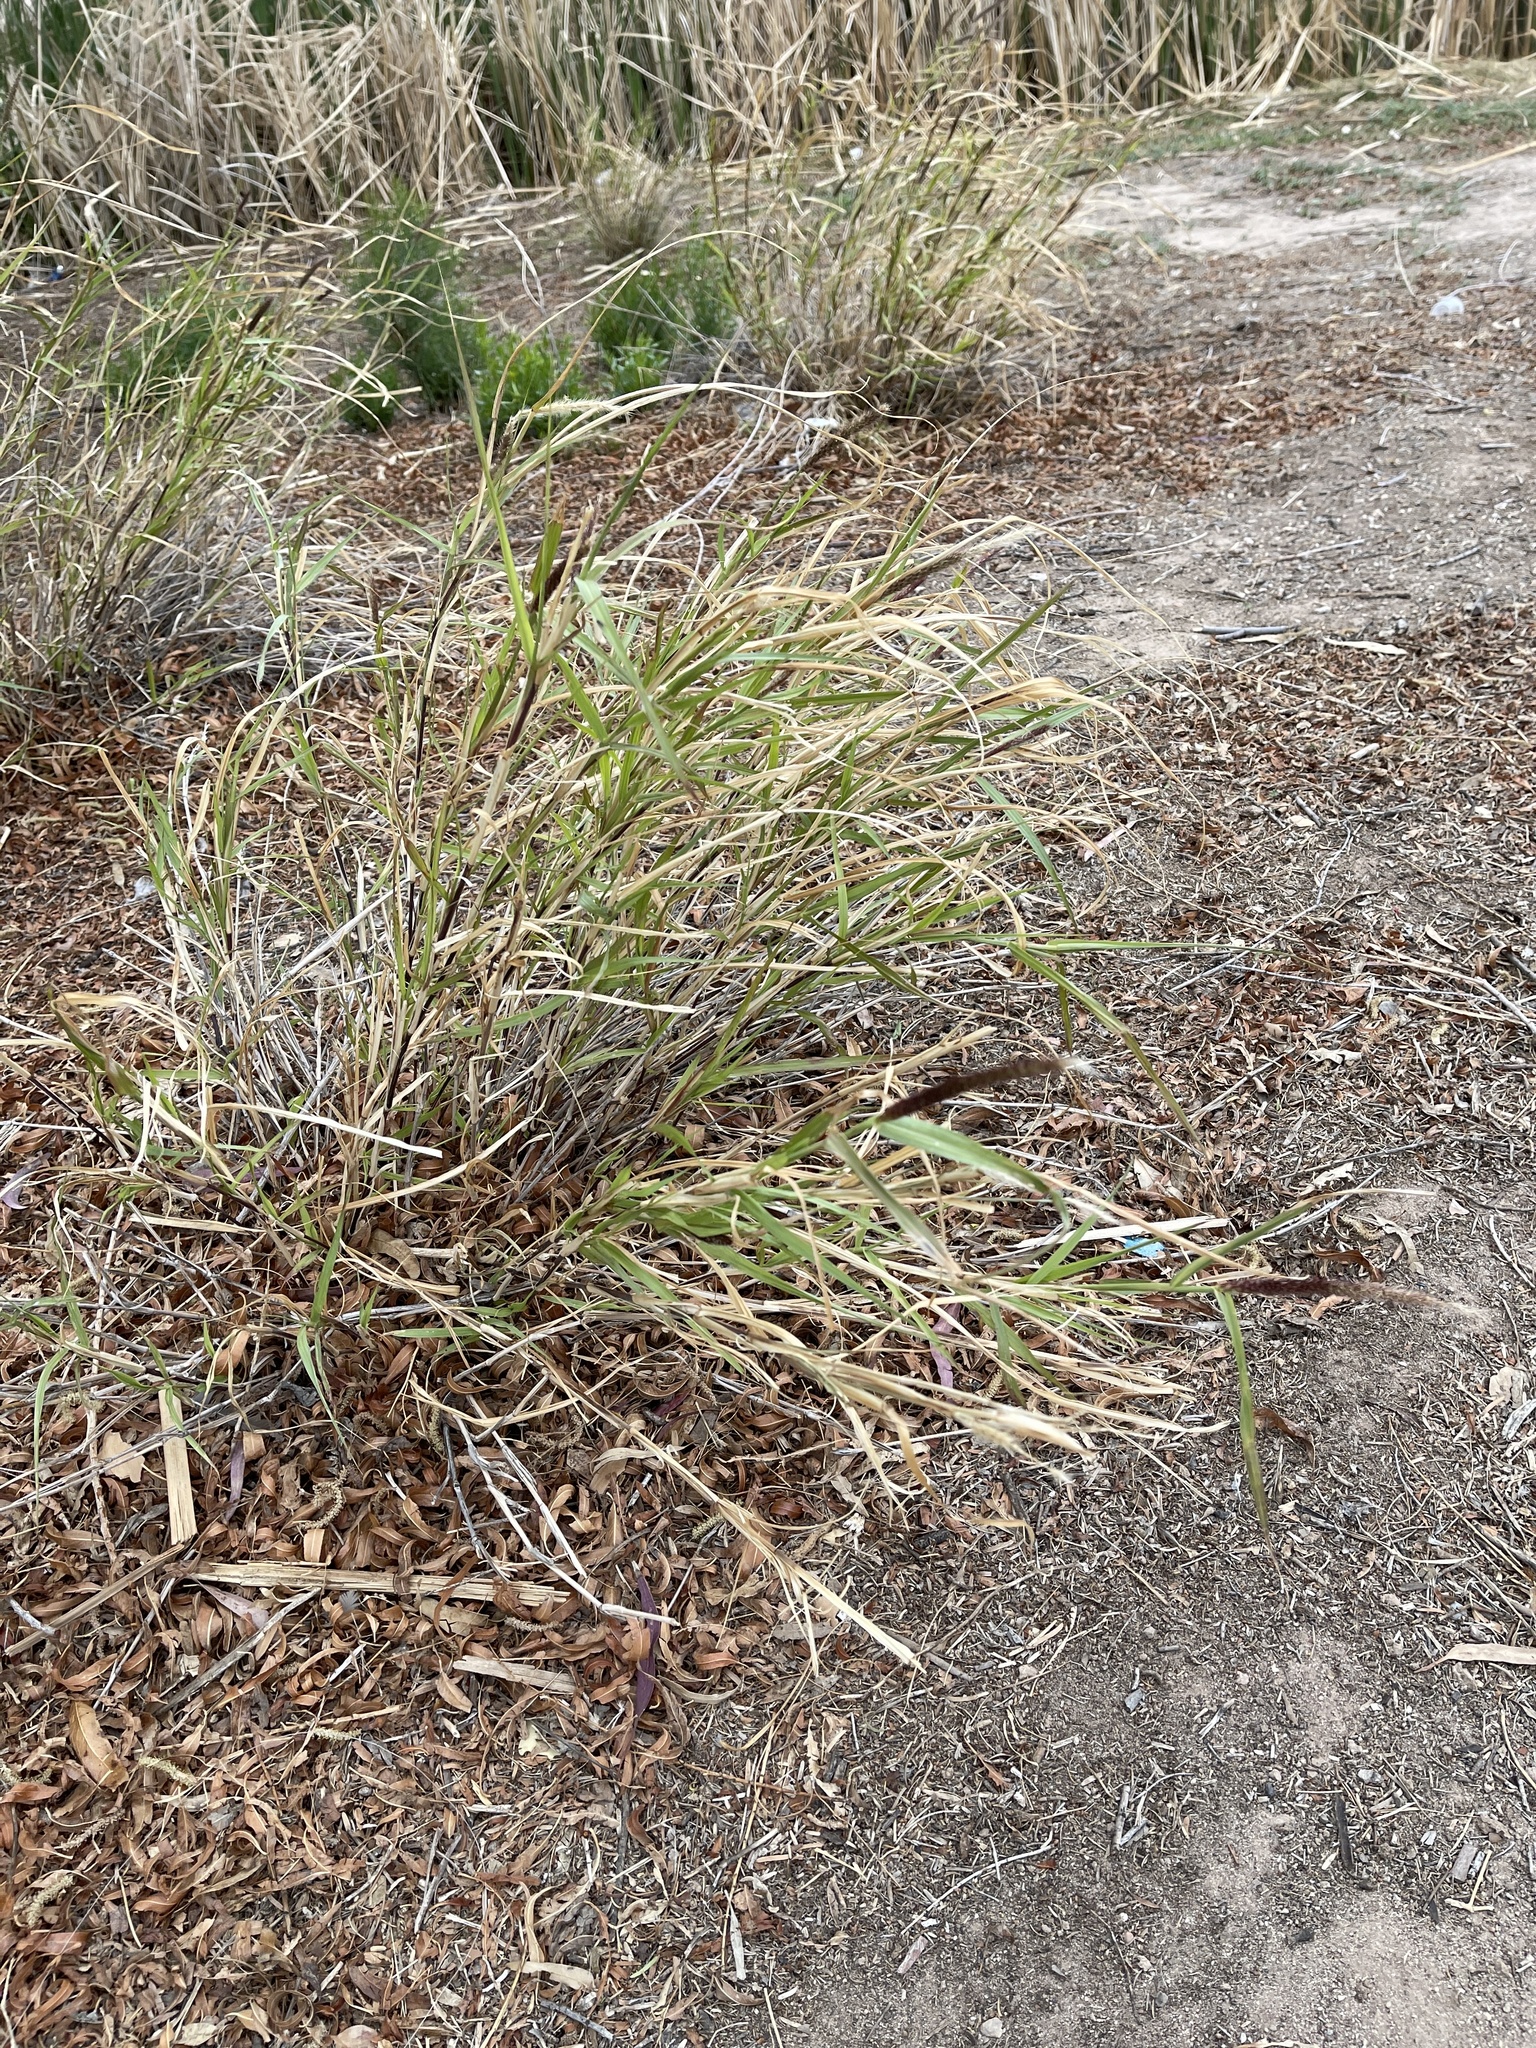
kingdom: Plantae
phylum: Tracheophyta
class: Liliopsida
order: Poales
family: Poaceae
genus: Cenchrus
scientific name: Cenchrus ciliaris
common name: Buffelgrass
